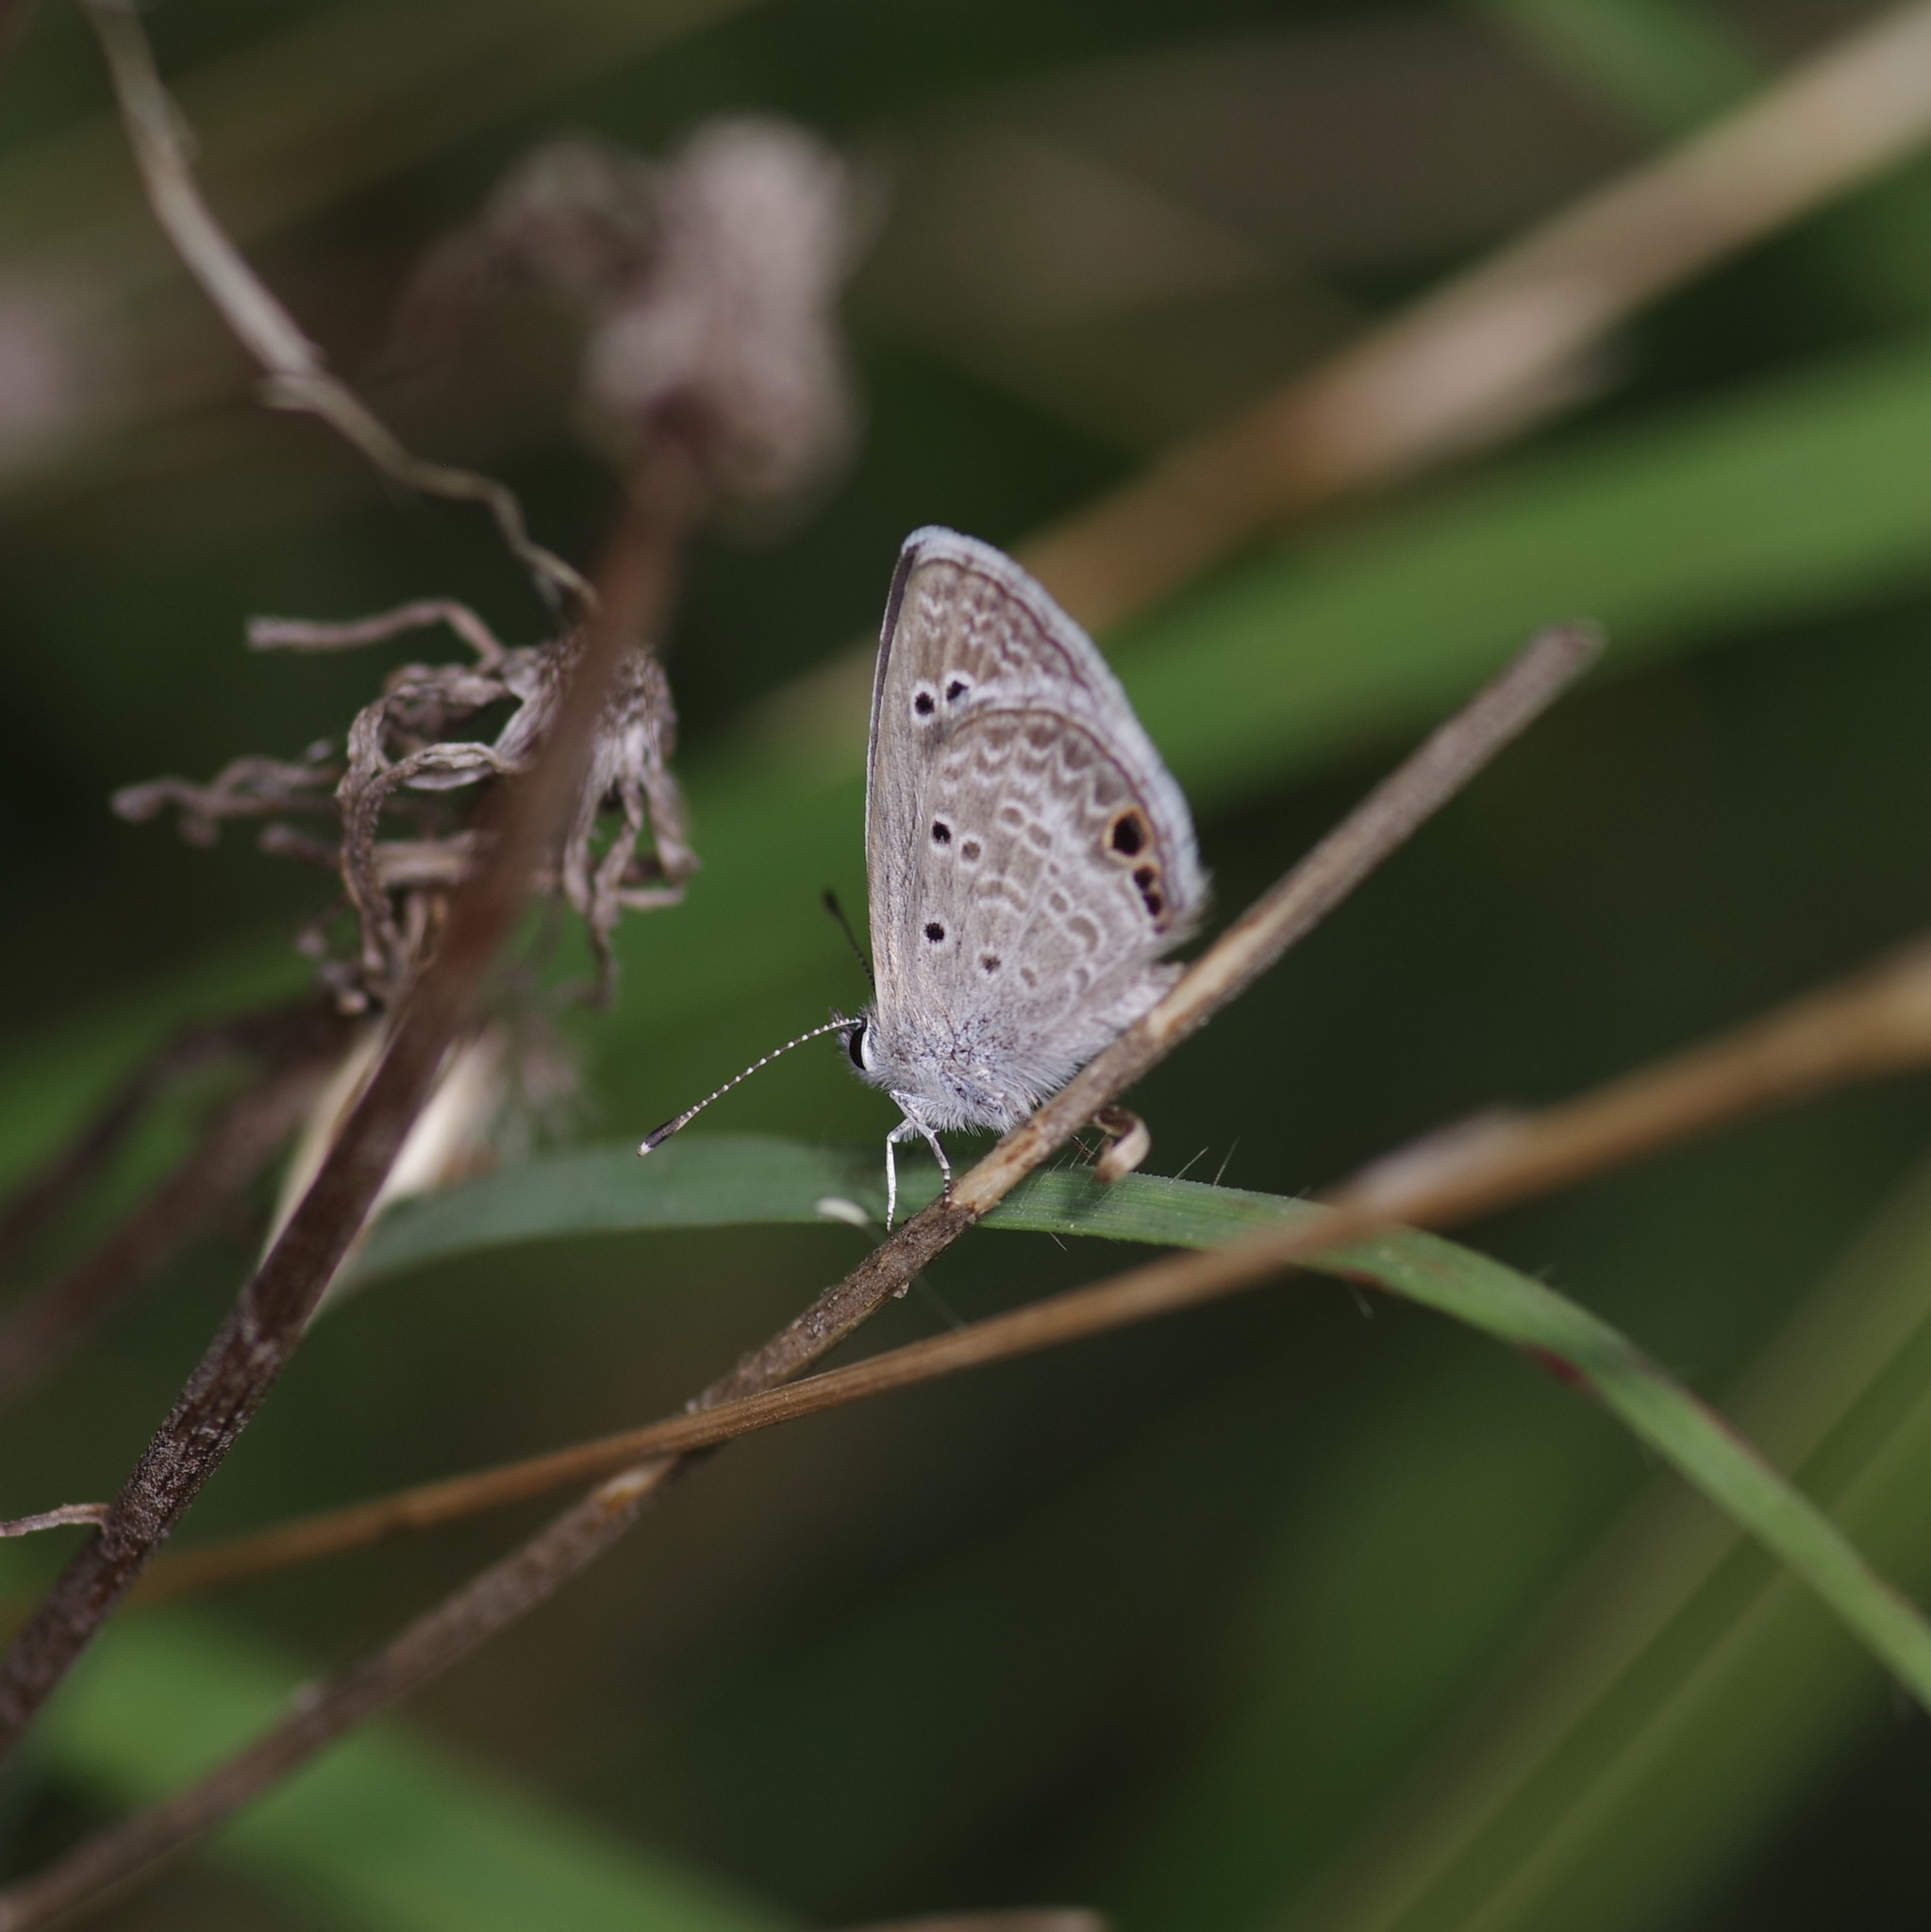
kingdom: Animalia
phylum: Arthropoda
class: Insecta
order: Lepidoptera
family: Lycaenidae
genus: Echinargus
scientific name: Echinargus isola
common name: Reakirt's blue
